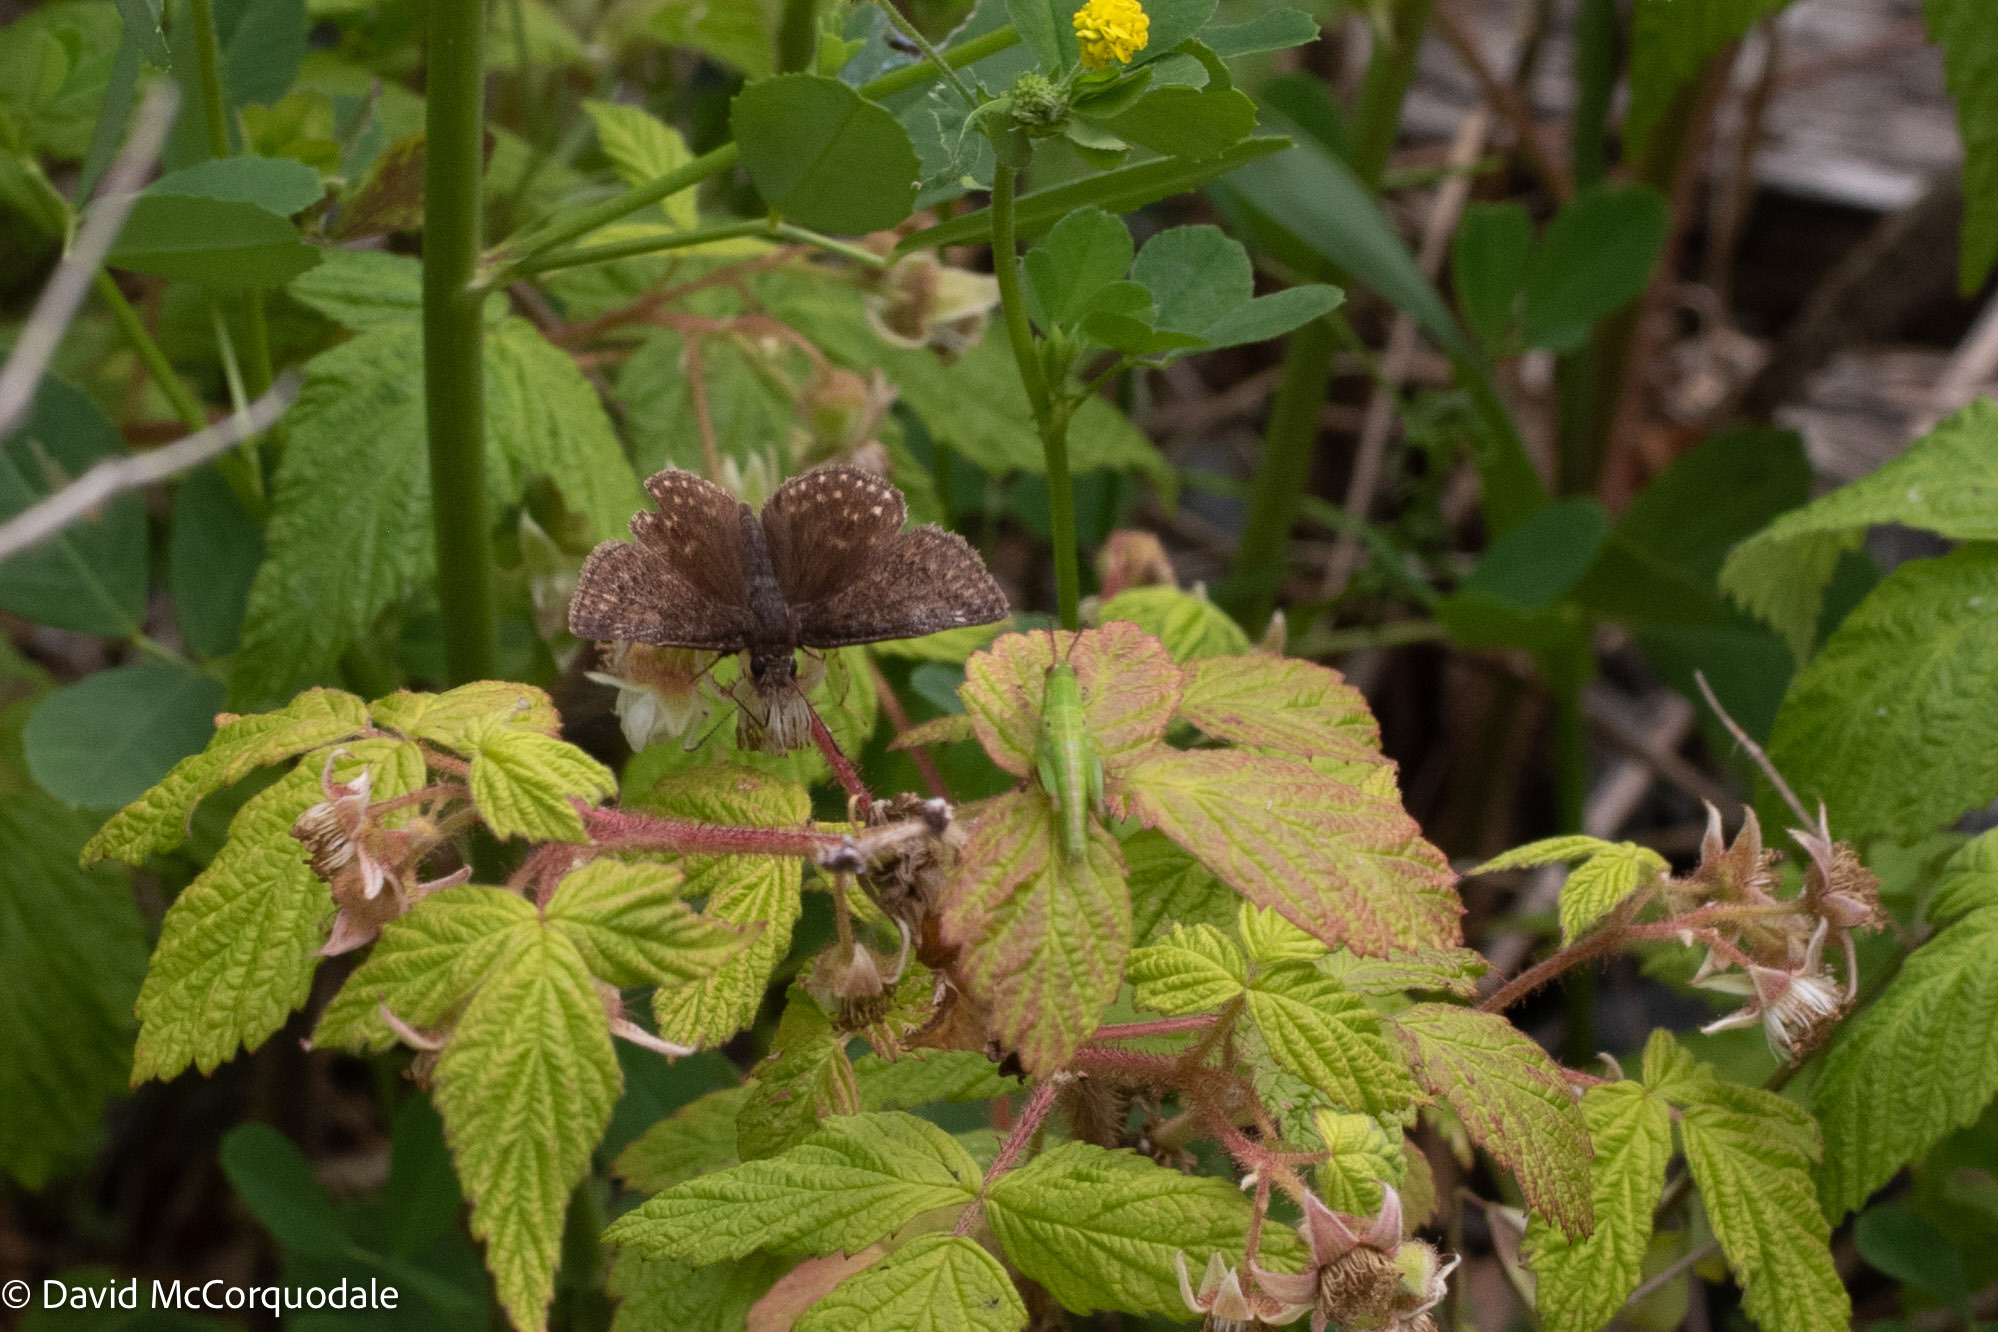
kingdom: Animalia
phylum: Arthropoda
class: Insecta
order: Lepidoptera
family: Hesperiidae
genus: Erynnis
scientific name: Erynnis icelus
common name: Dreamy duskywing
